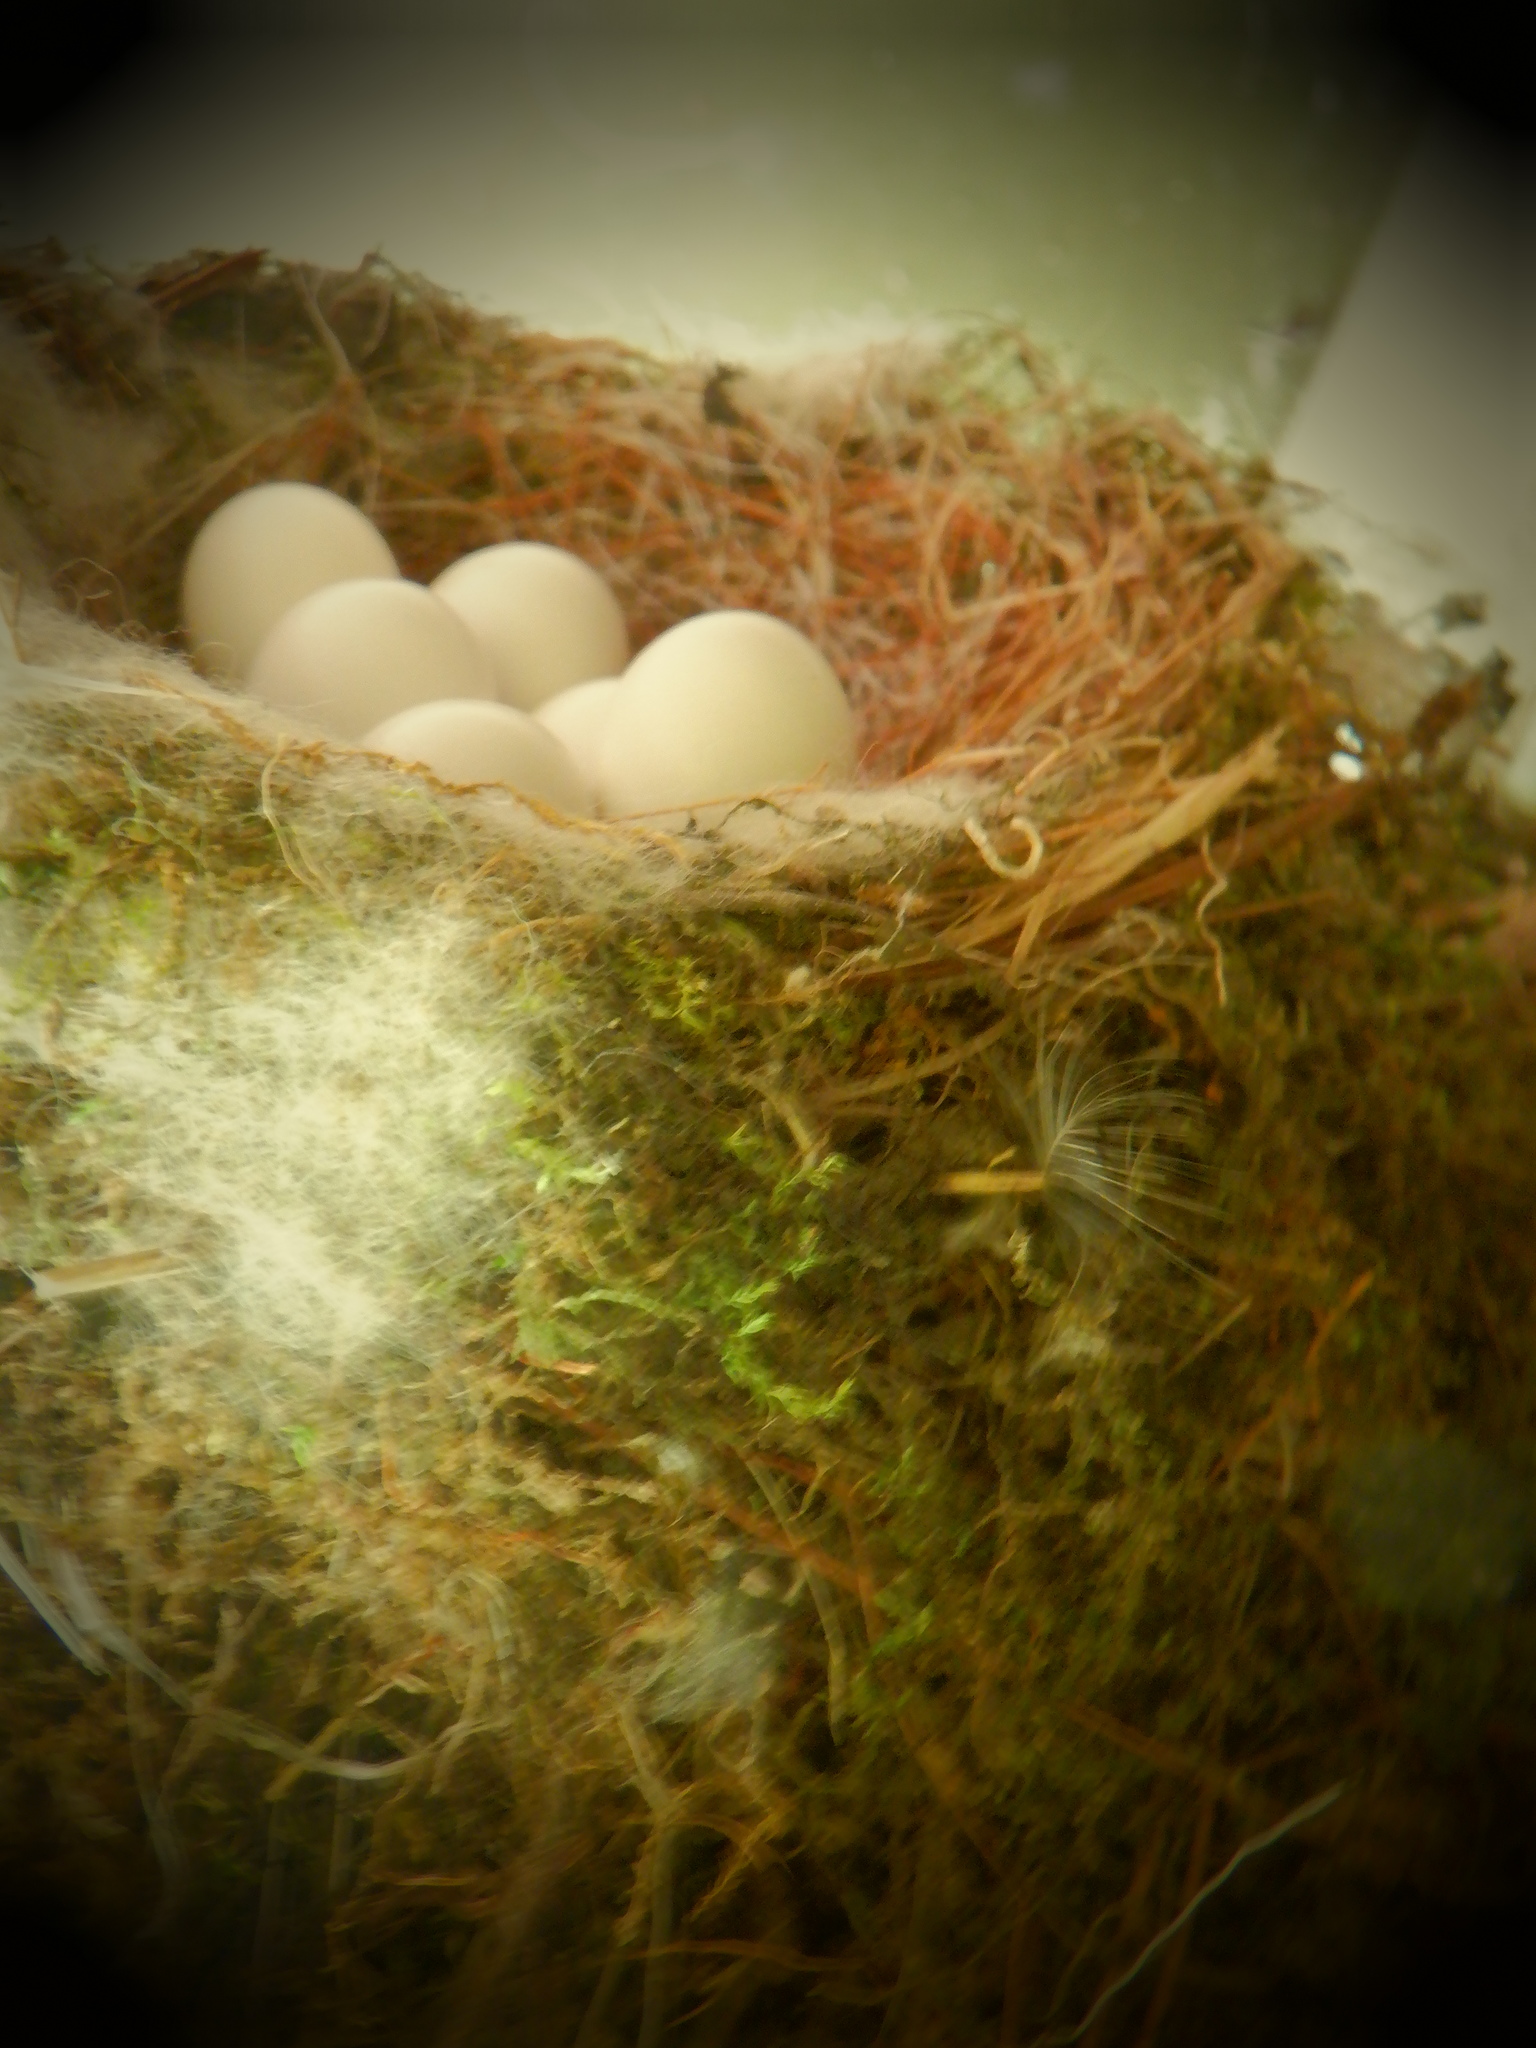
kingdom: Animalia
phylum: Chordata
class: Aves
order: Passeriformes
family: Tyrannidae
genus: Sayornis
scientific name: Sayornis phoebe
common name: Eastern phoebe
